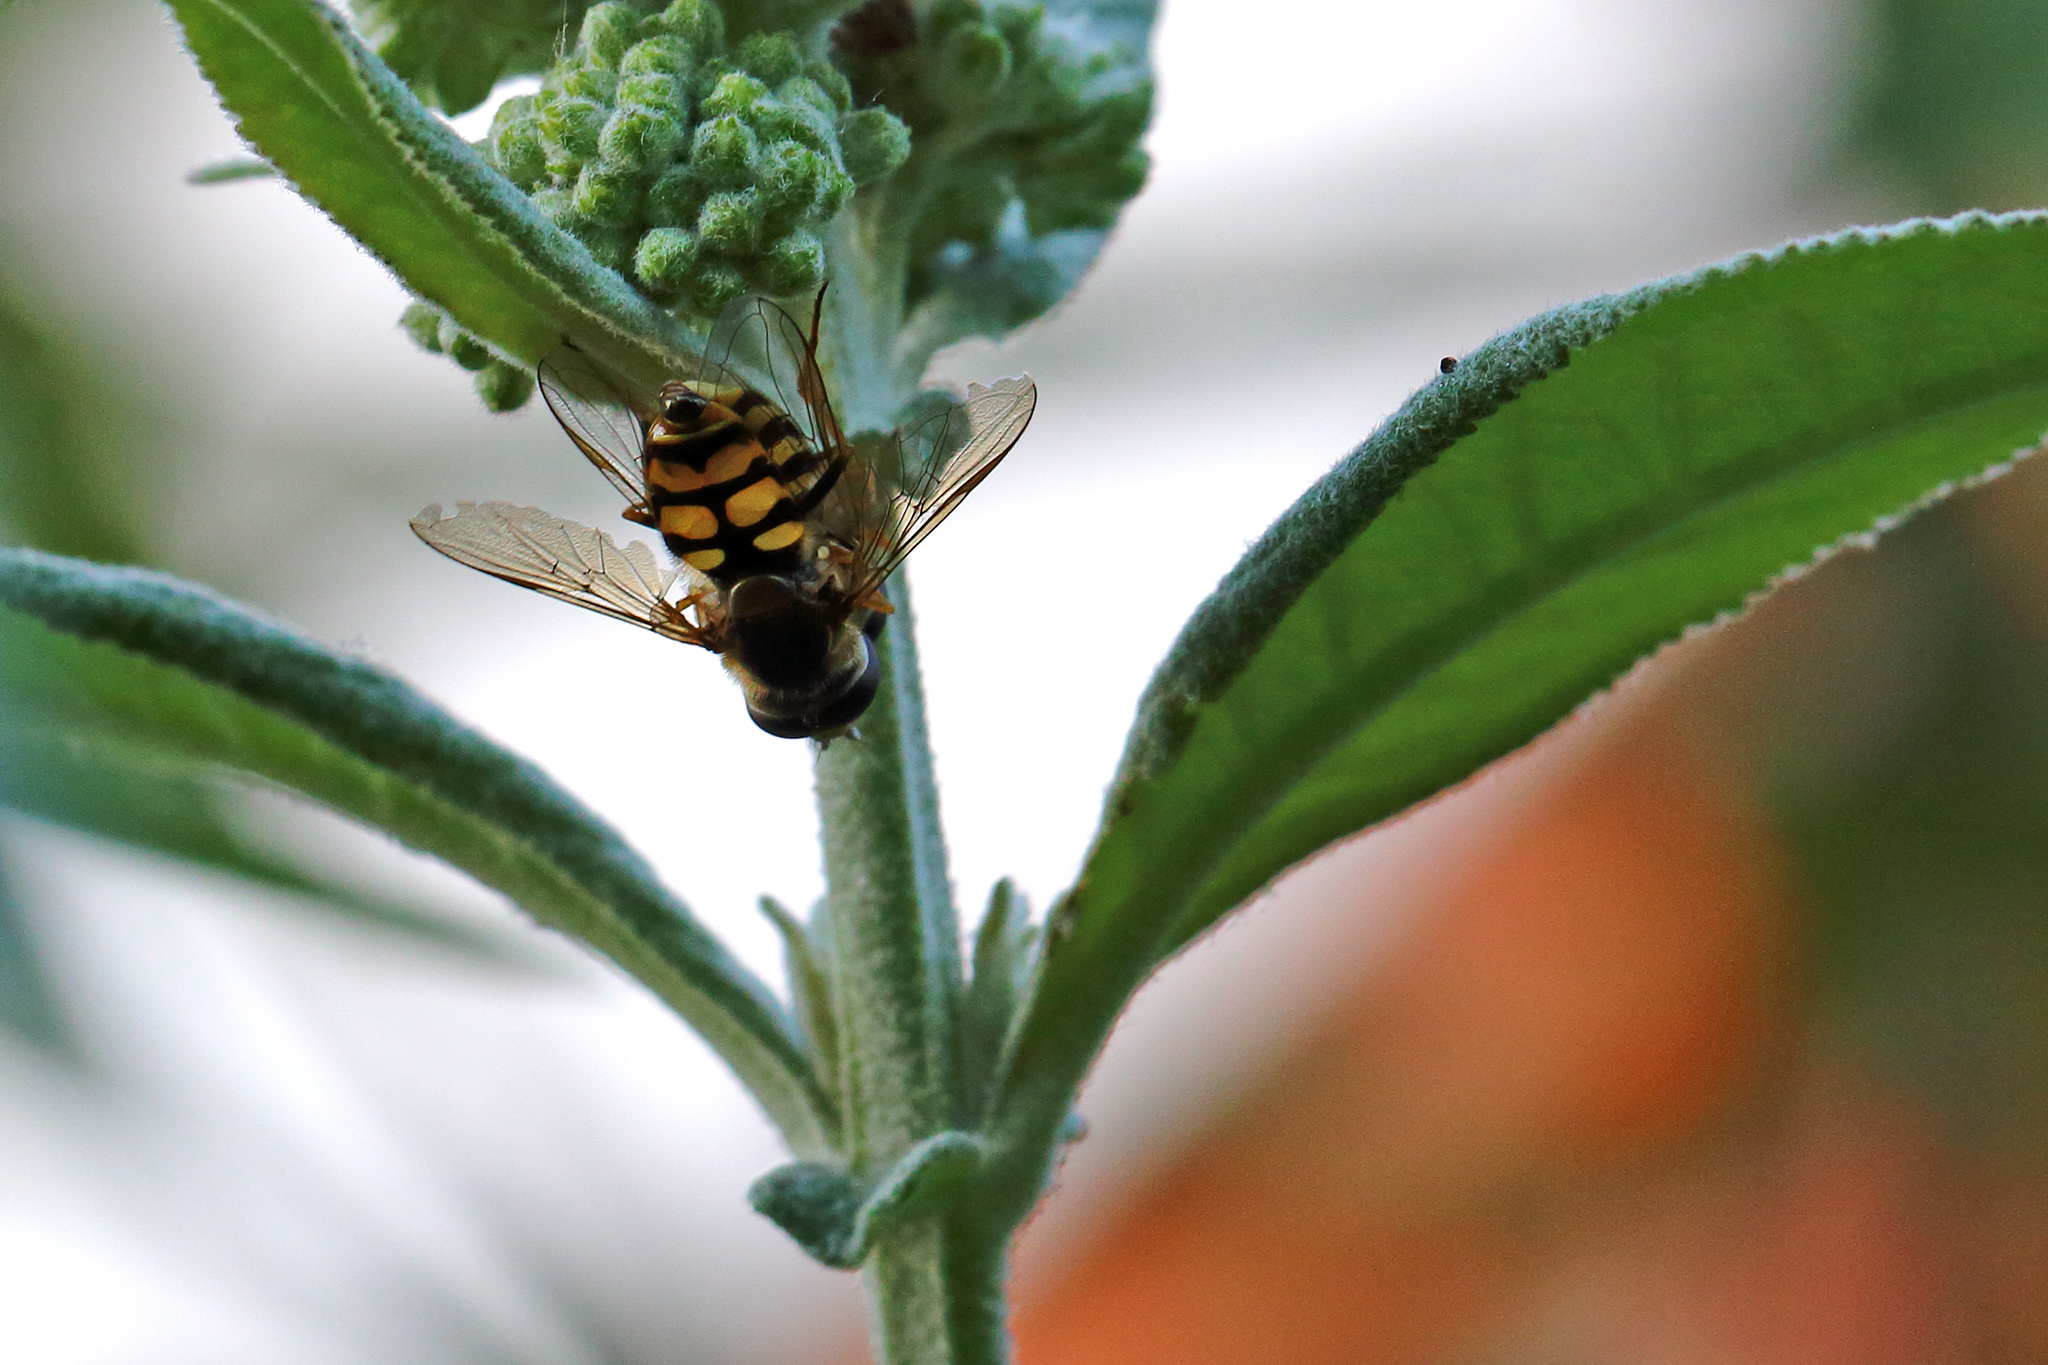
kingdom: Animalia
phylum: Arthropoda
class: Insecta
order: Diptera
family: Syrphidae
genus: Eupeodes
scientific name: Eupeodes corollae
